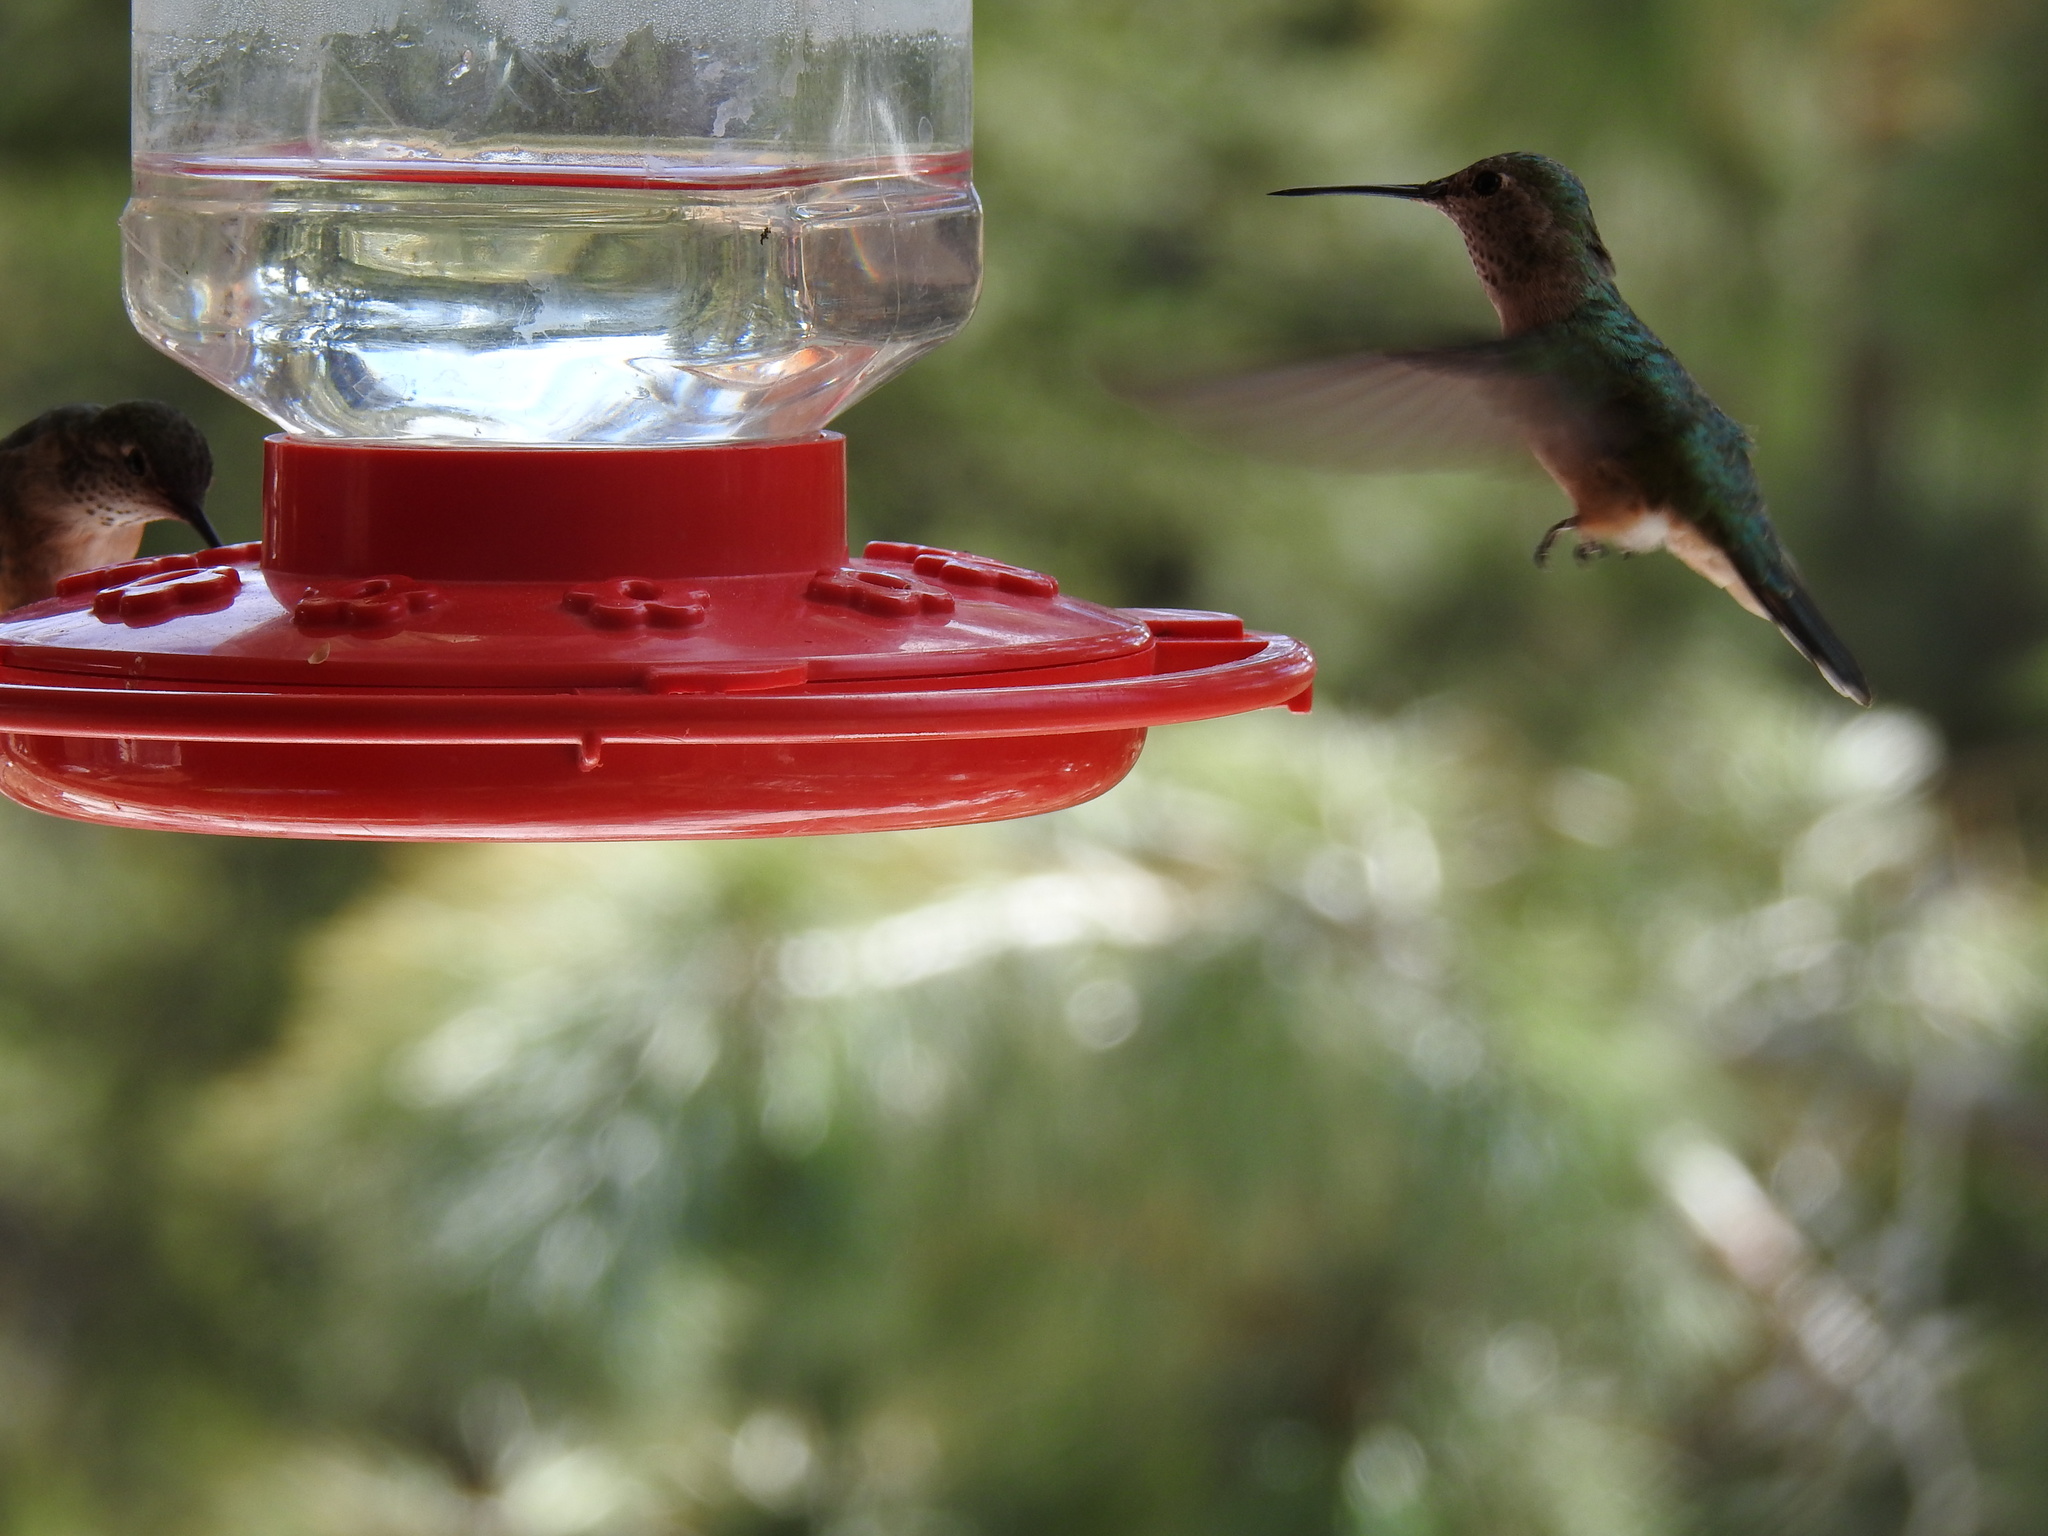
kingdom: Animalia
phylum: Chordata
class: Aves
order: Apodiformes
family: Trochilidae
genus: Selasphorus
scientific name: Selasphorus platycercus
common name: Broad-tailed hummingbird
